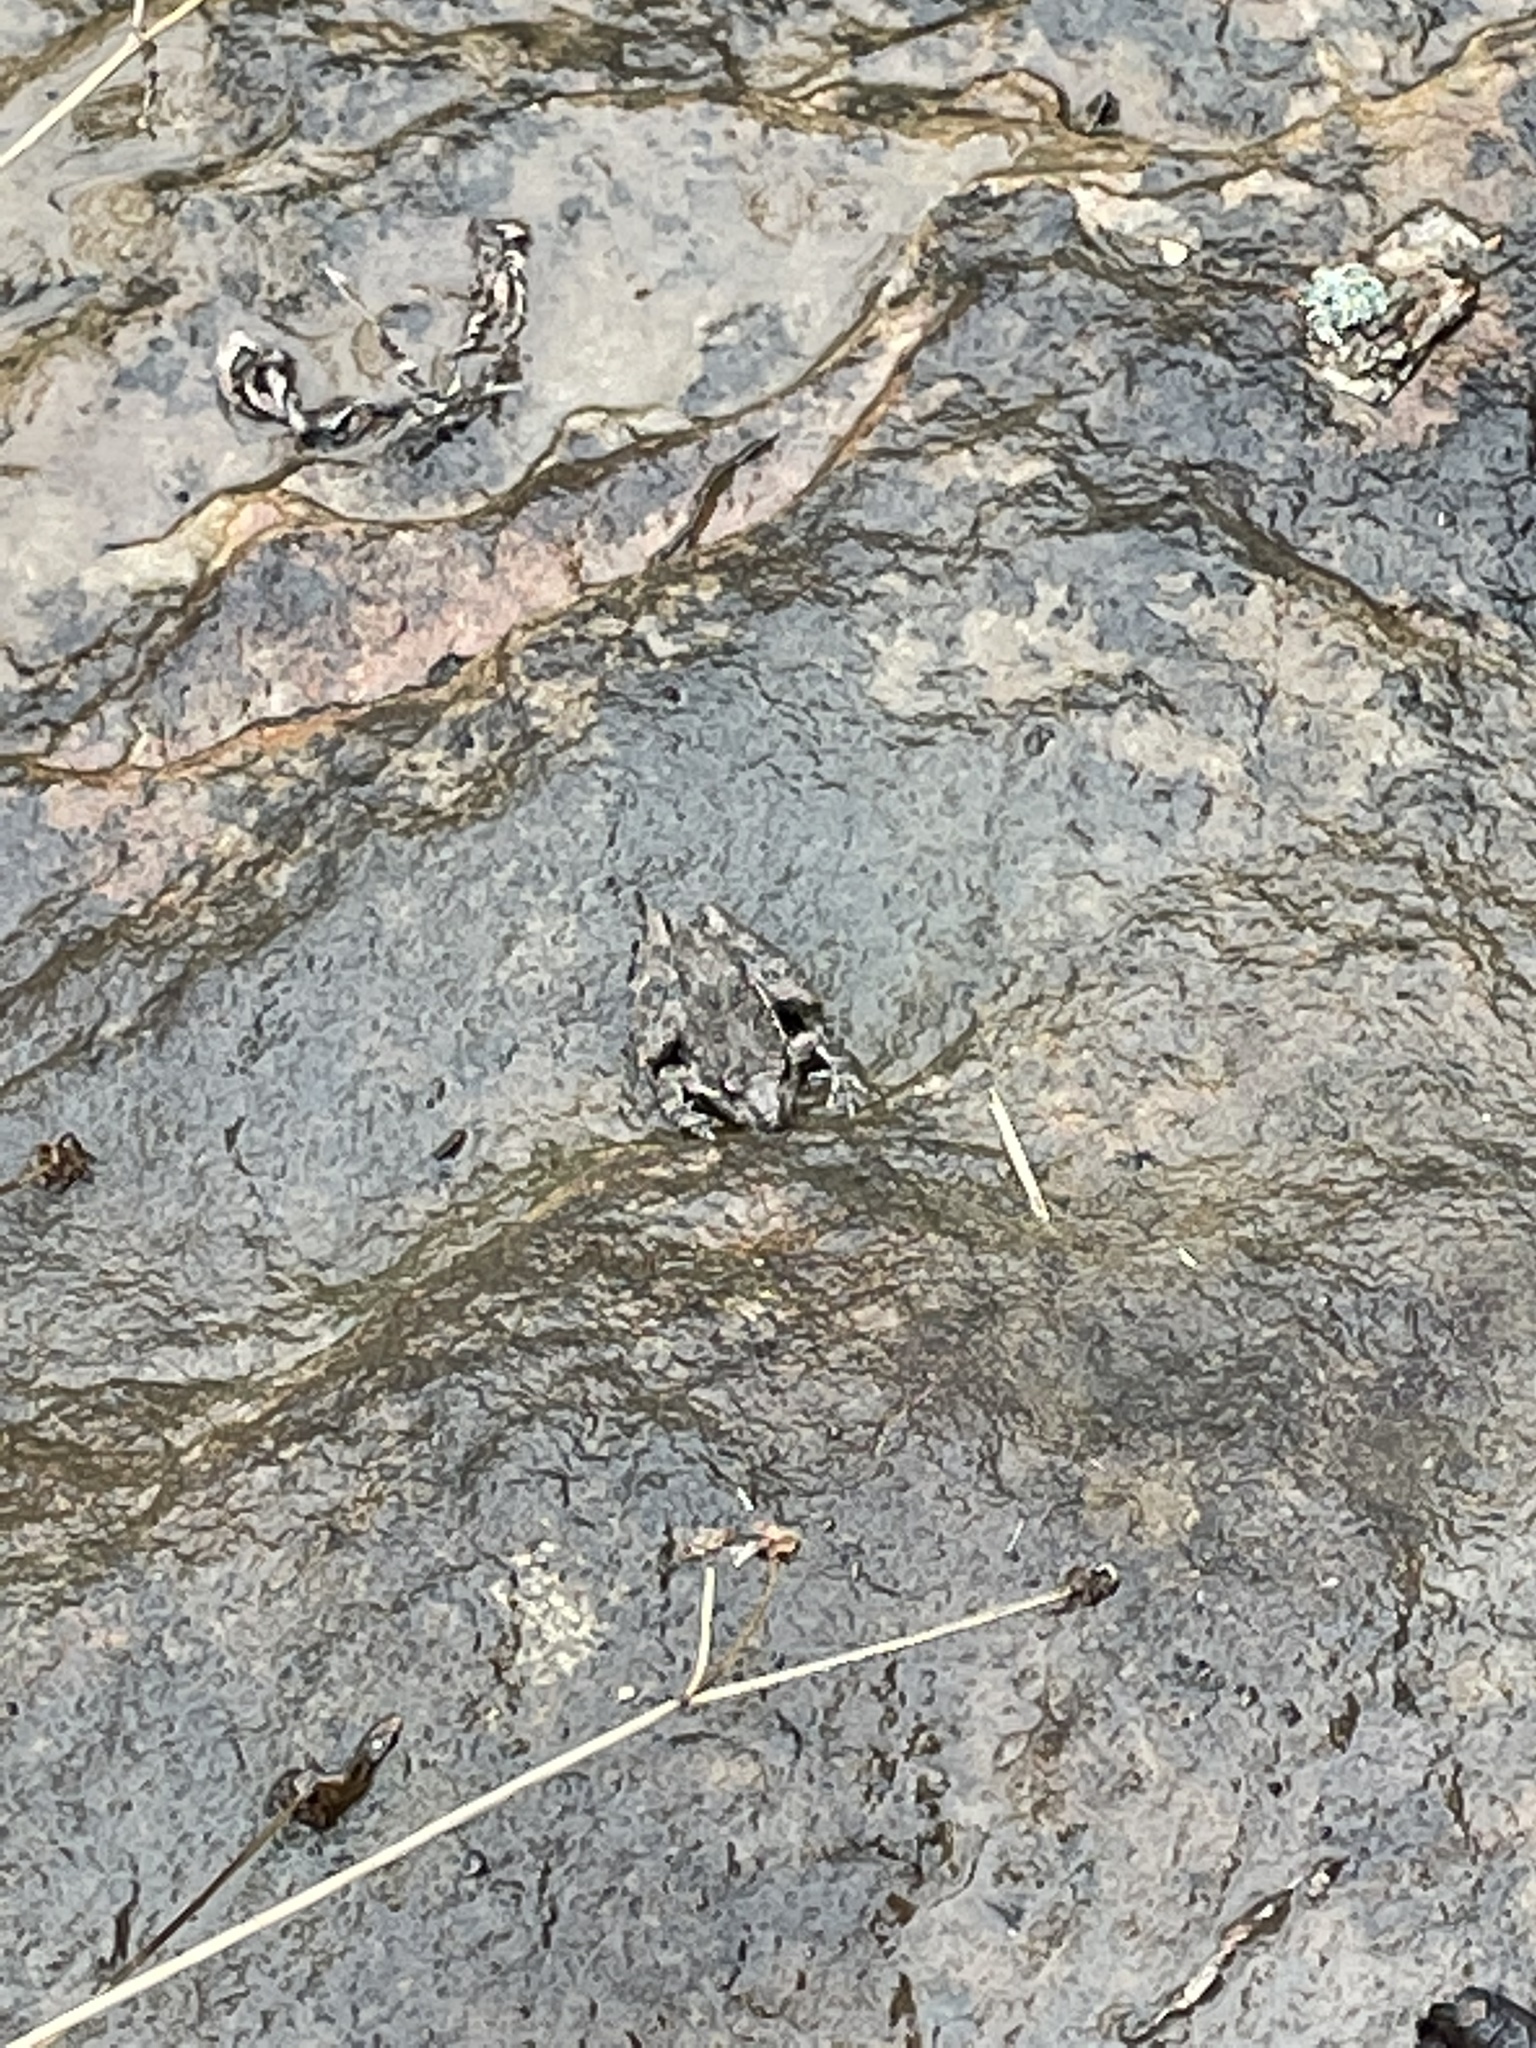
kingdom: Animalia
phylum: Chordata
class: Amphibia
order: Anura
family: Hylidae
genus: Acris
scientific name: Acris blanchardi
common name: Blanchard's cricket frog
